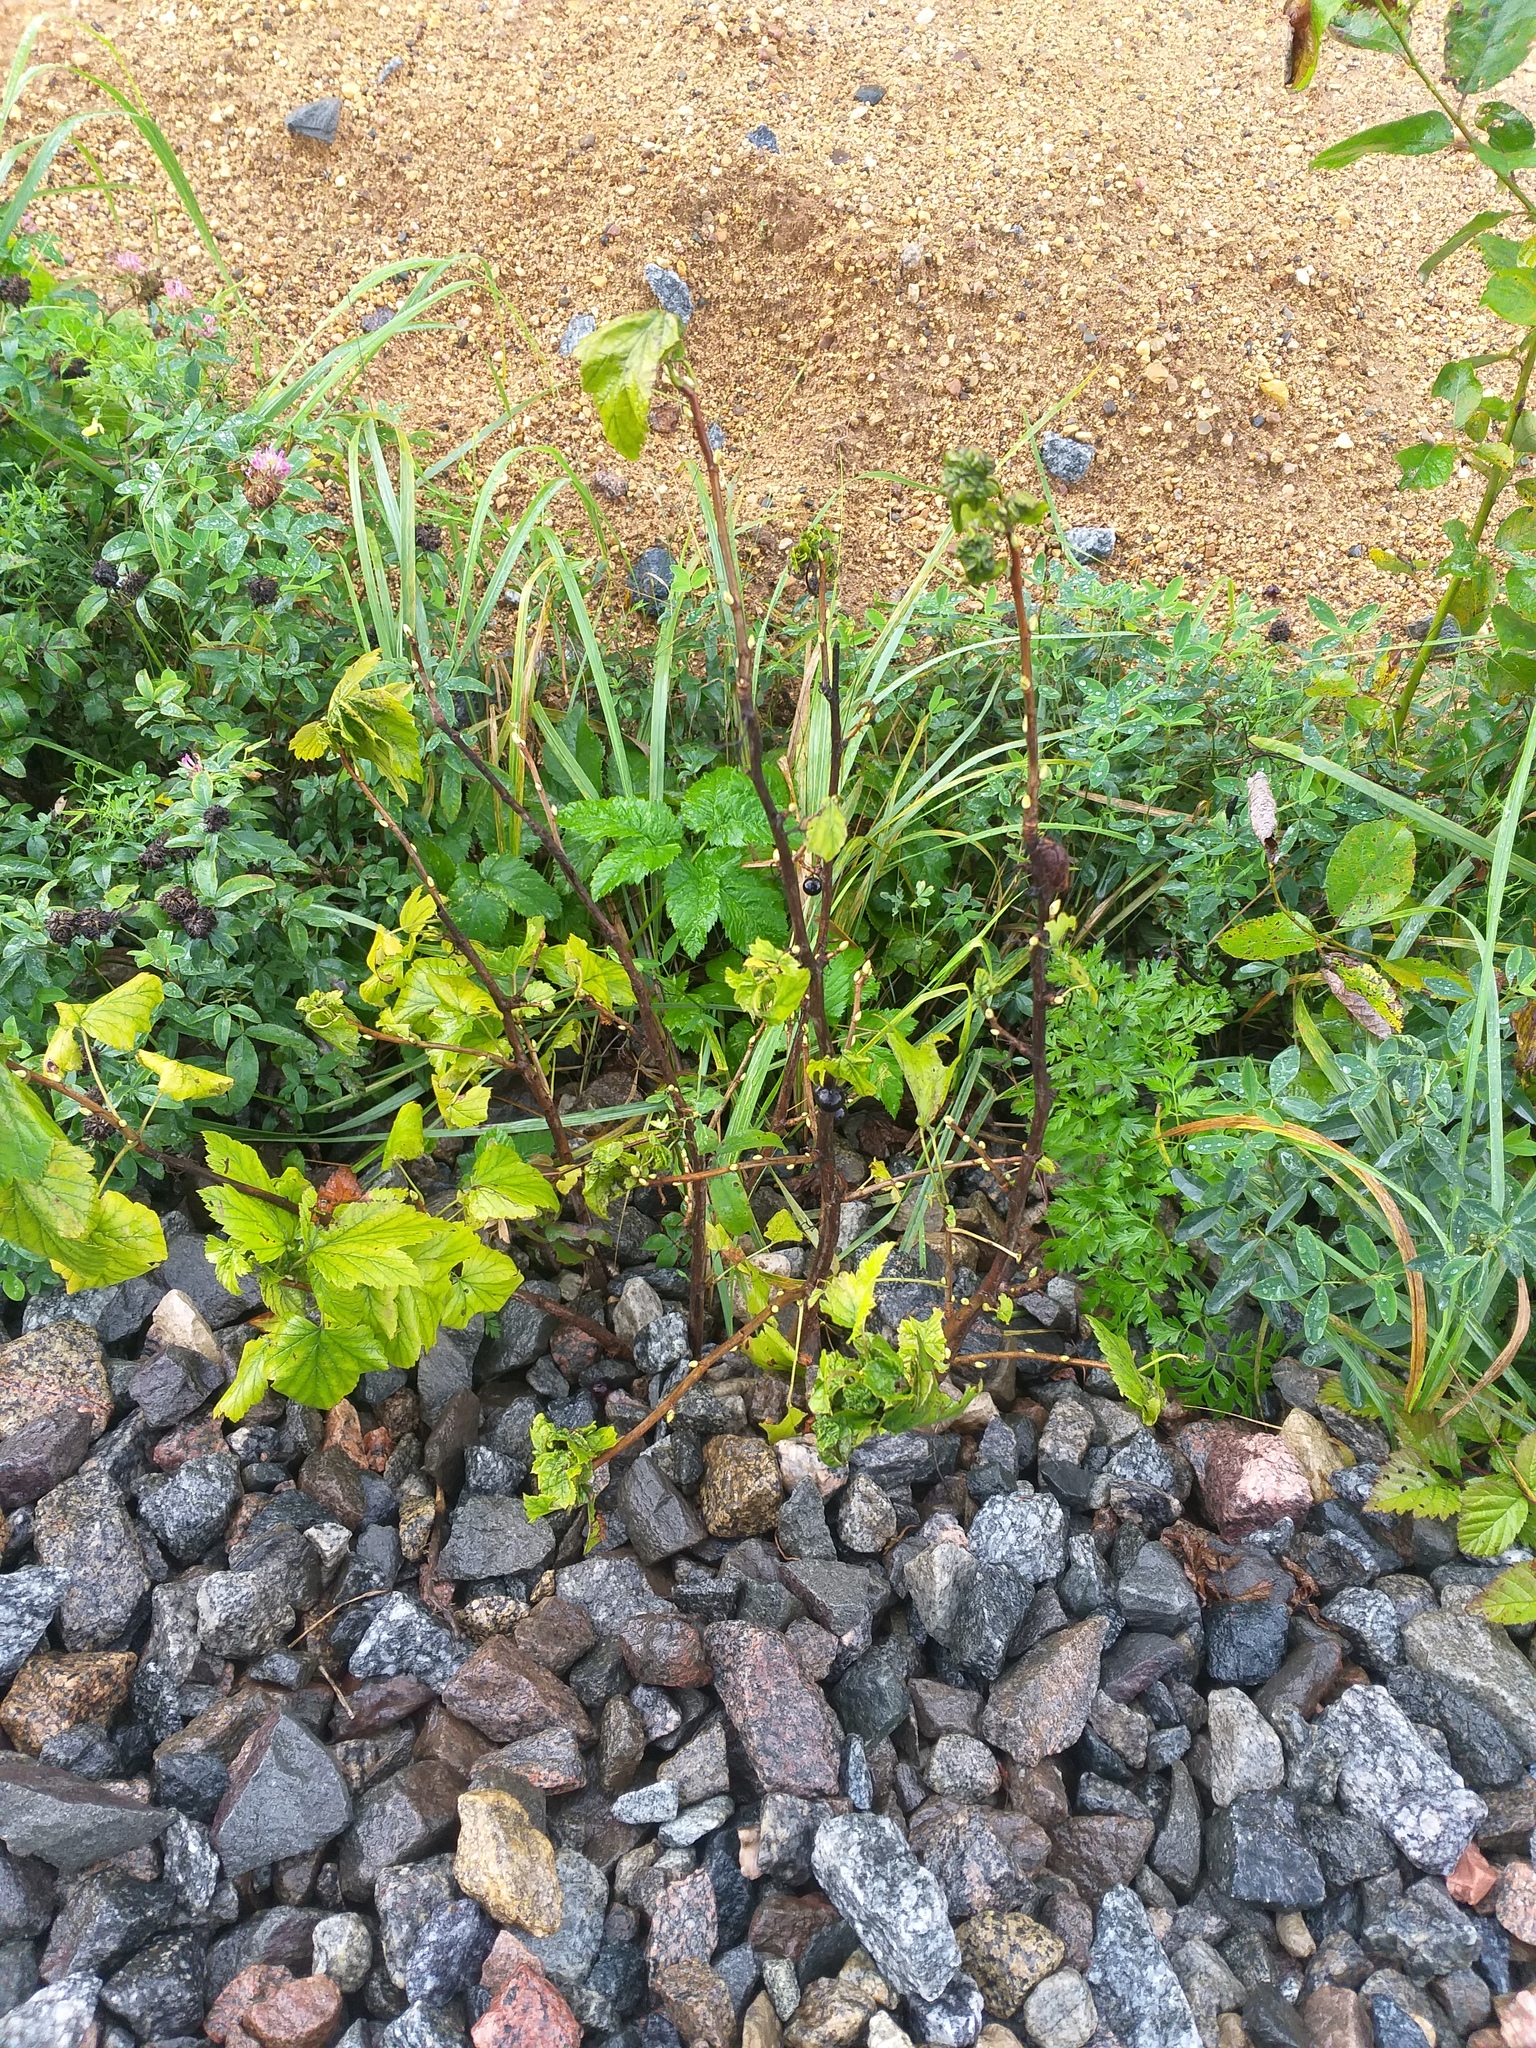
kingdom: Plantae
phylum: Tracheophyta
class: Magnoliopsida
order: Saxifragales
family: Grossulariaceae
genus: Ribes
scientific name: Ribes nigrum
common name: Black currant
